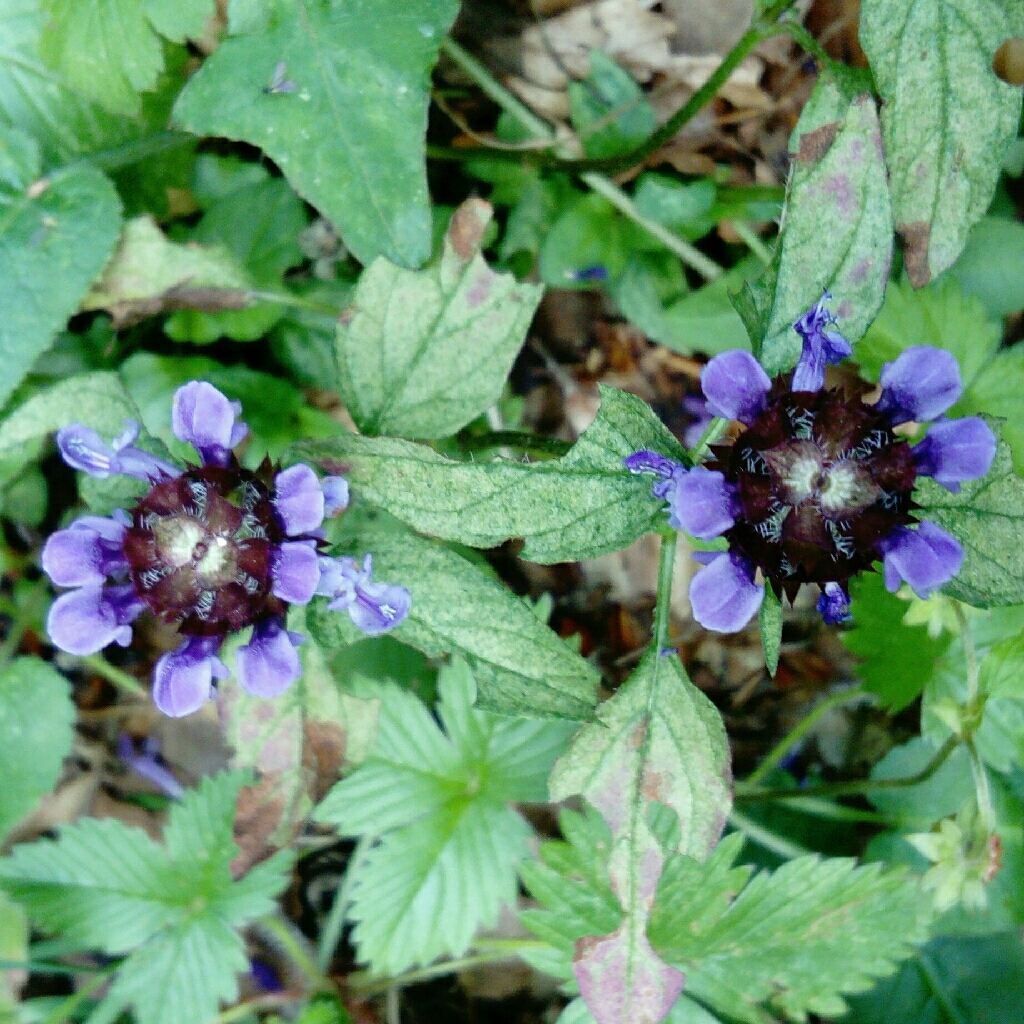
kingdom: Plantae
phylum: Tracheophyta
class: Magnoliopsida
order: Lamiales
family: Lamiaceae
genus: Prunella
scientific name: Prunella vulgaris
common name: Heal-all
